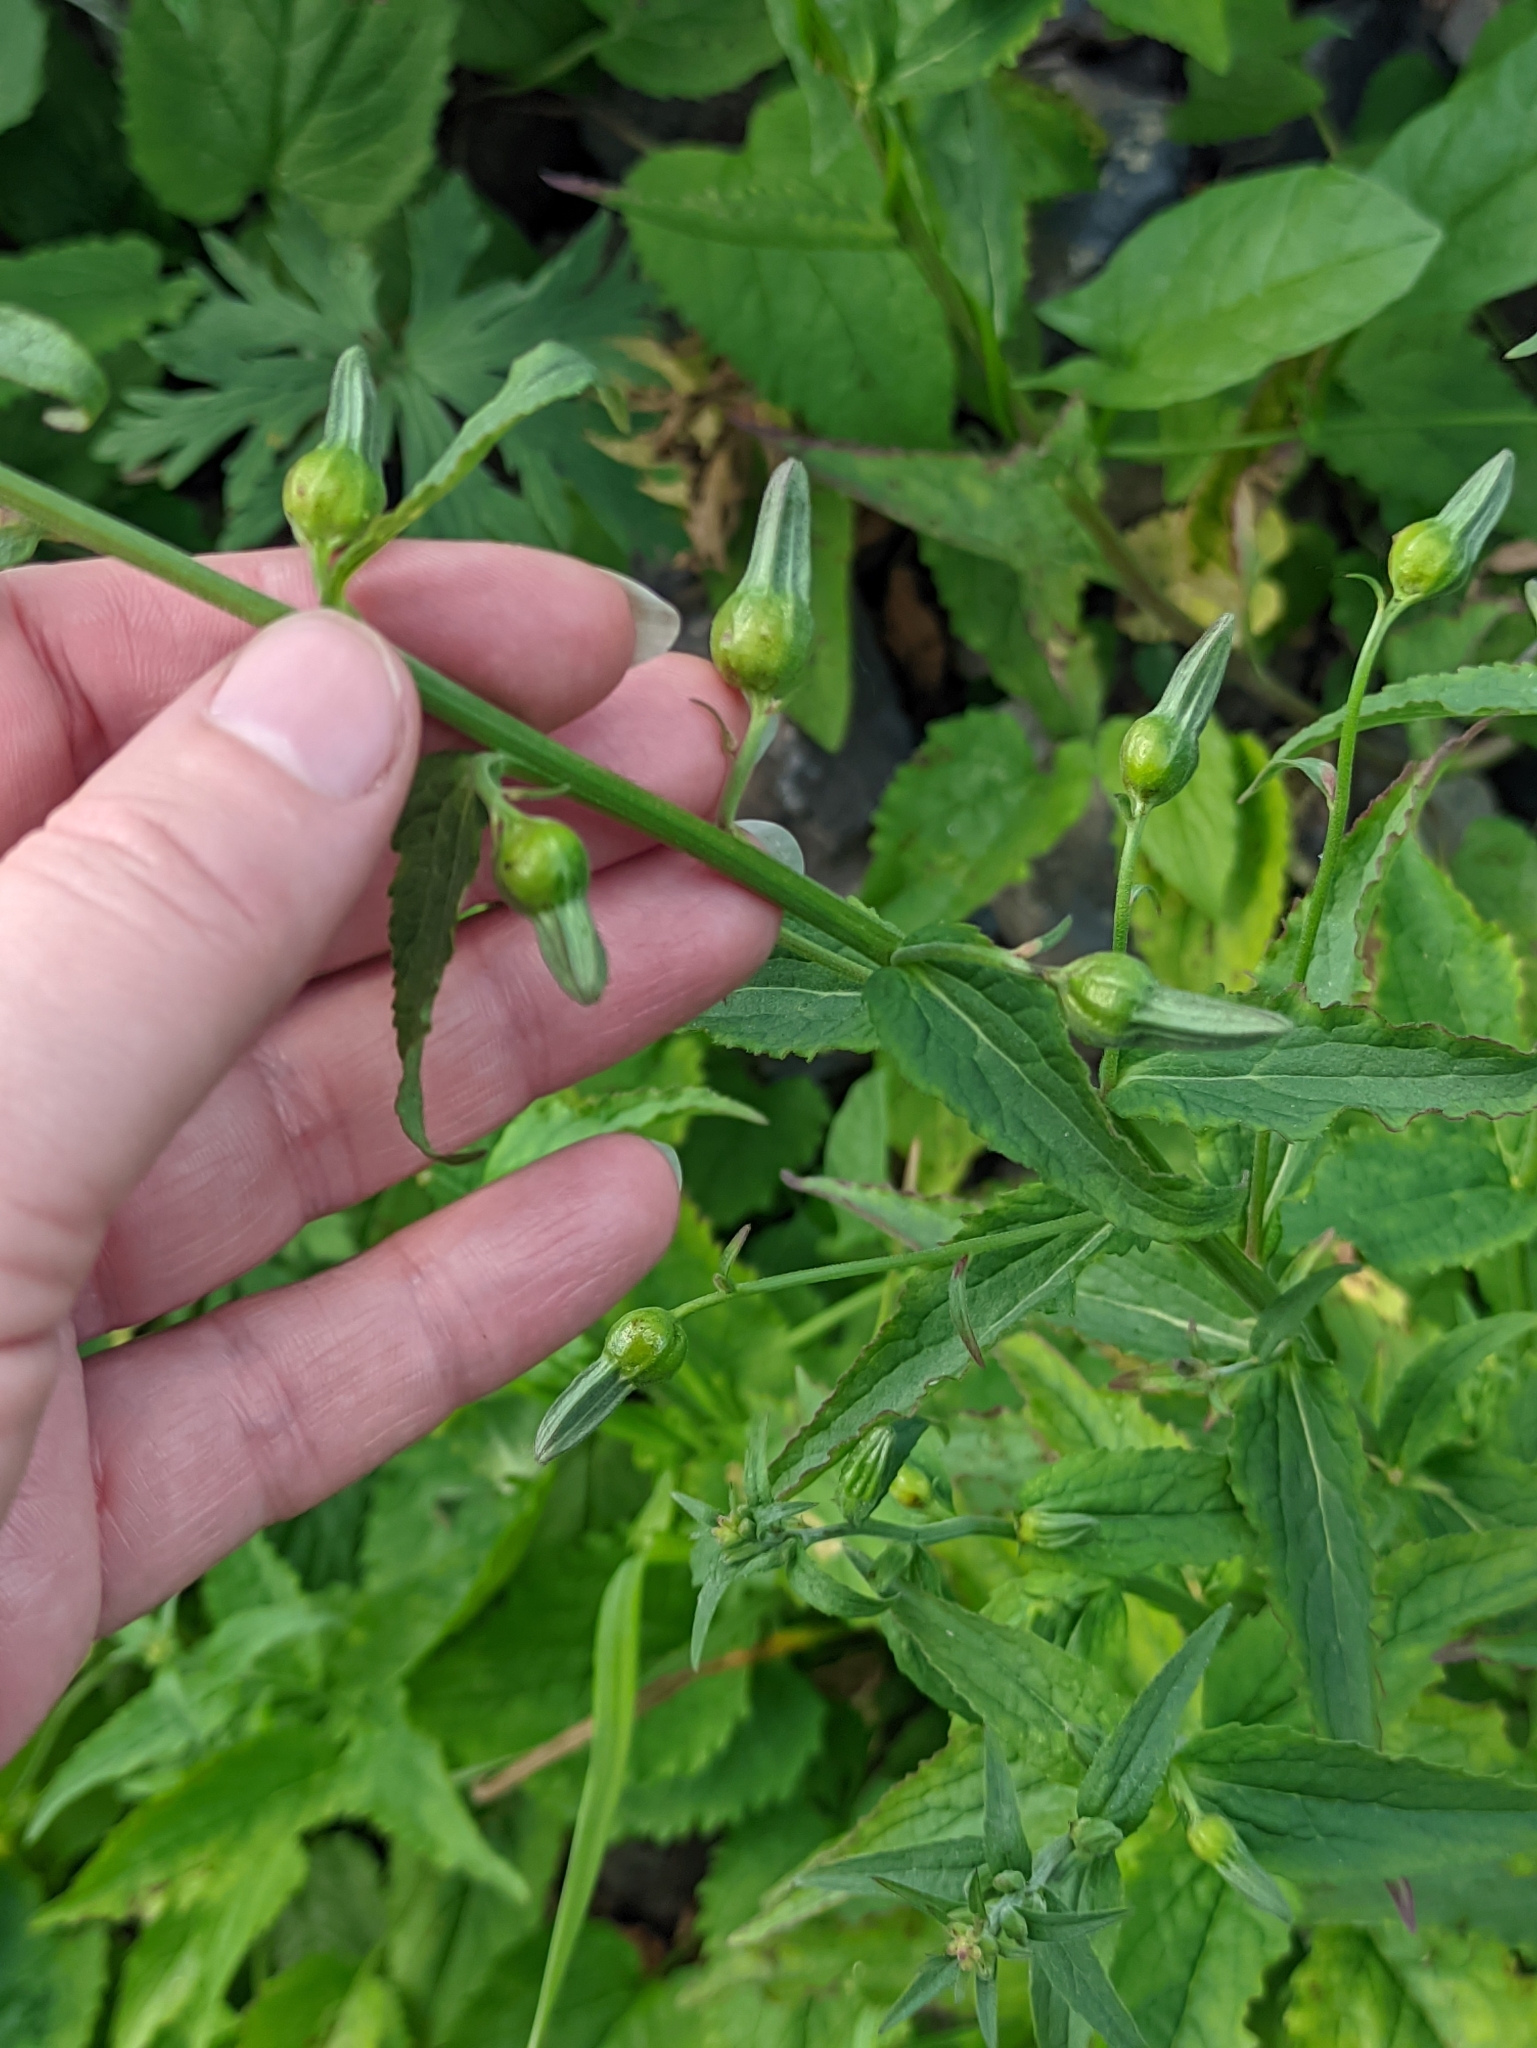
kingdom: Plantae
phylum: Tracheophyta
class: Magnoliopsida
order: Asterales
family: Campanulaceae
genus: Campanula
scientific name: Campanula rapunculoides
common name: Creeping bellflower
